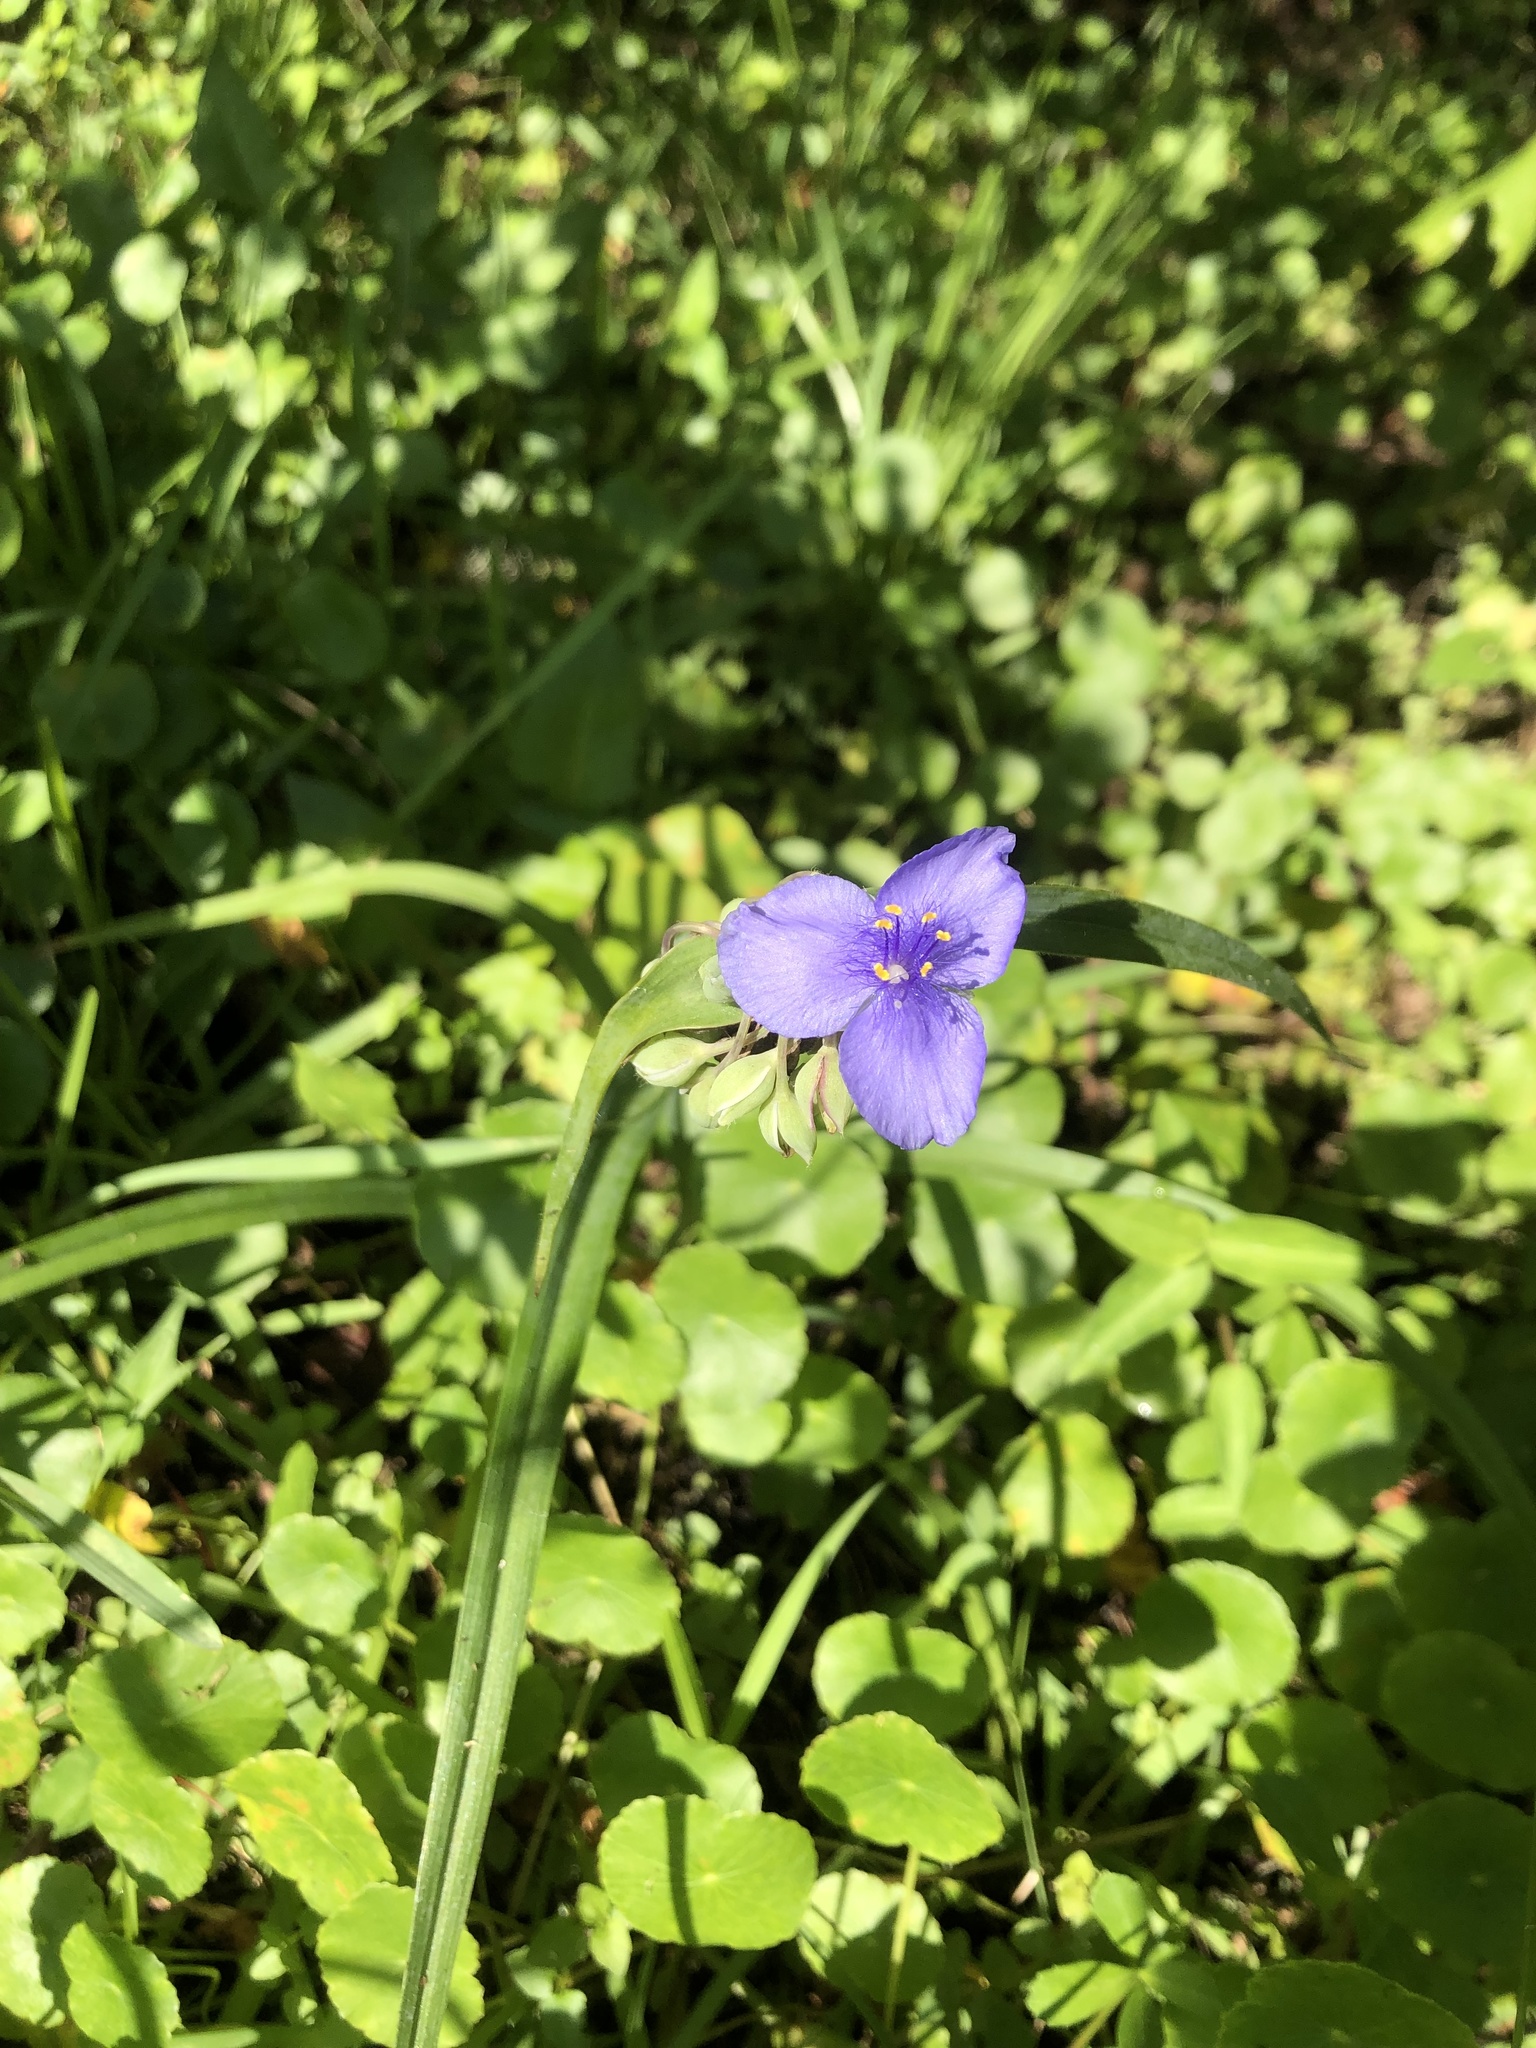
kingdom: Plantae
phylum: Tracheophyta
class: Liliopsida
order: Commelinales
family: Commelinaceae
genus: Tradescantia
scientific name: Tradescantia ohiensis
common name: Ohio spiderwort
